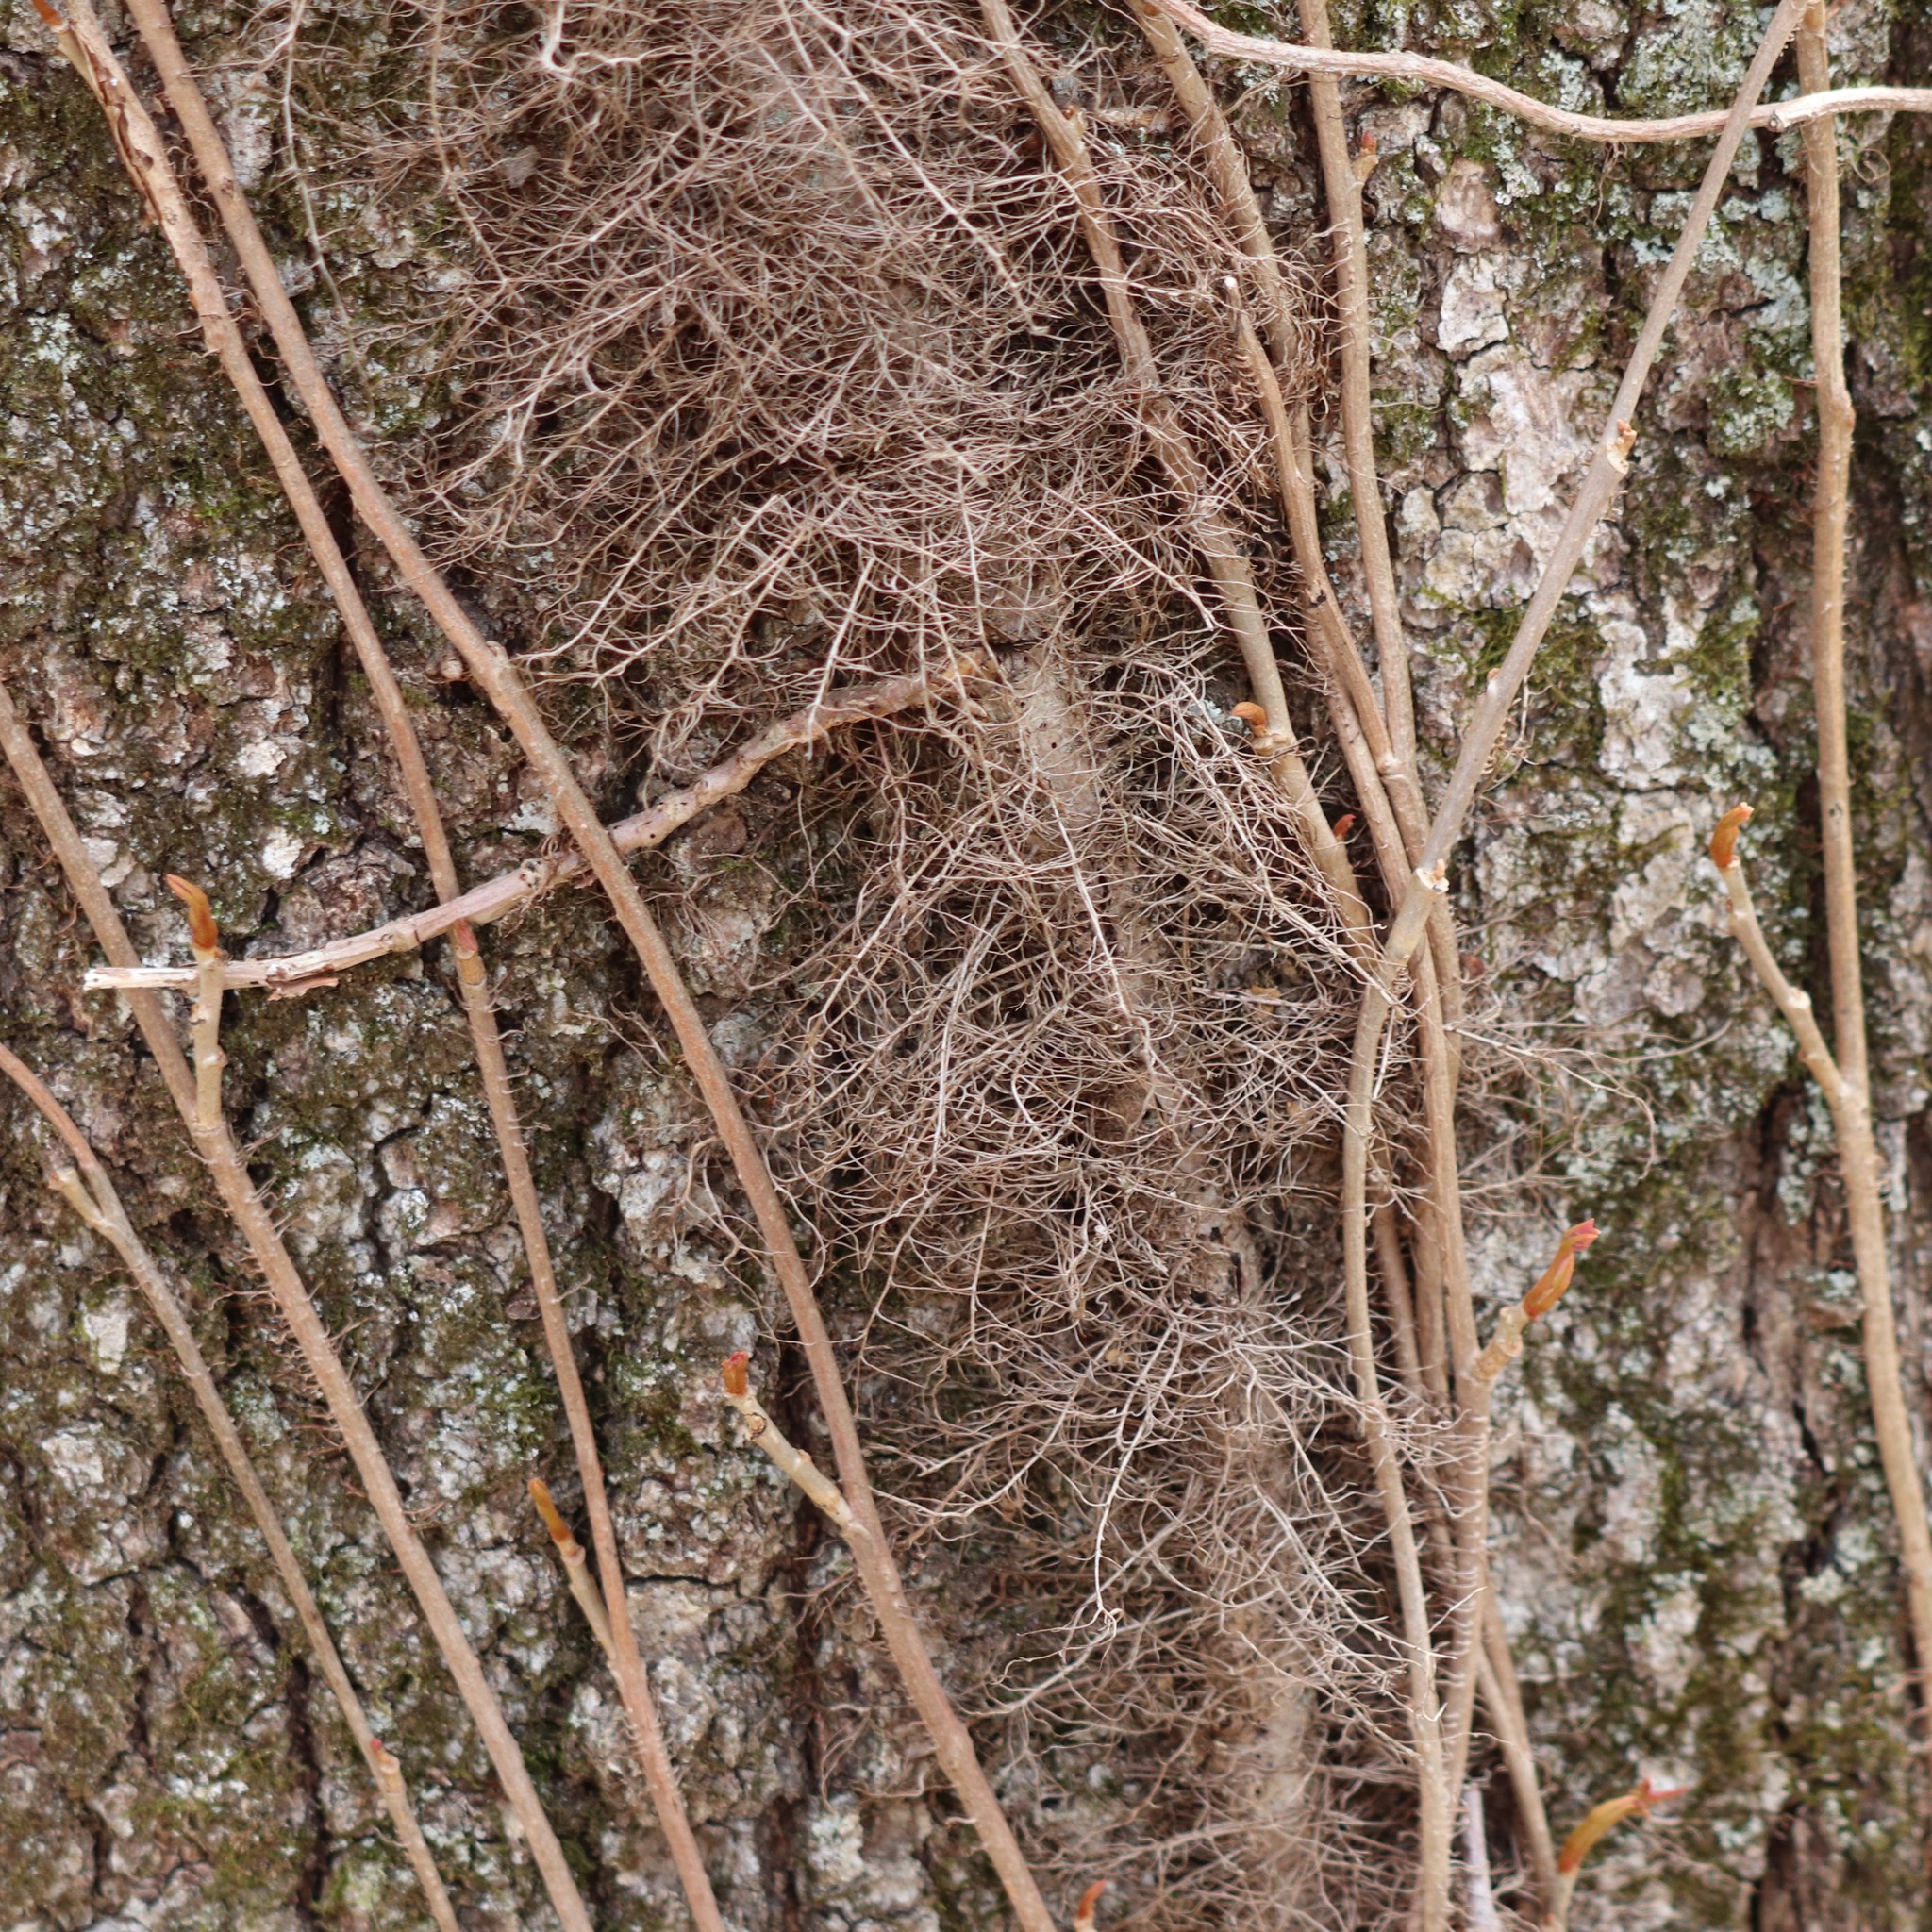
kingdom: Plantae
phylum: Tracheophyta
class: Magnoliopsida
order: Sapindales
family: Anacardiaceae
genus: Toxicodendron
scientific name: Toxicodendron radicans
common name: Poison ivy
